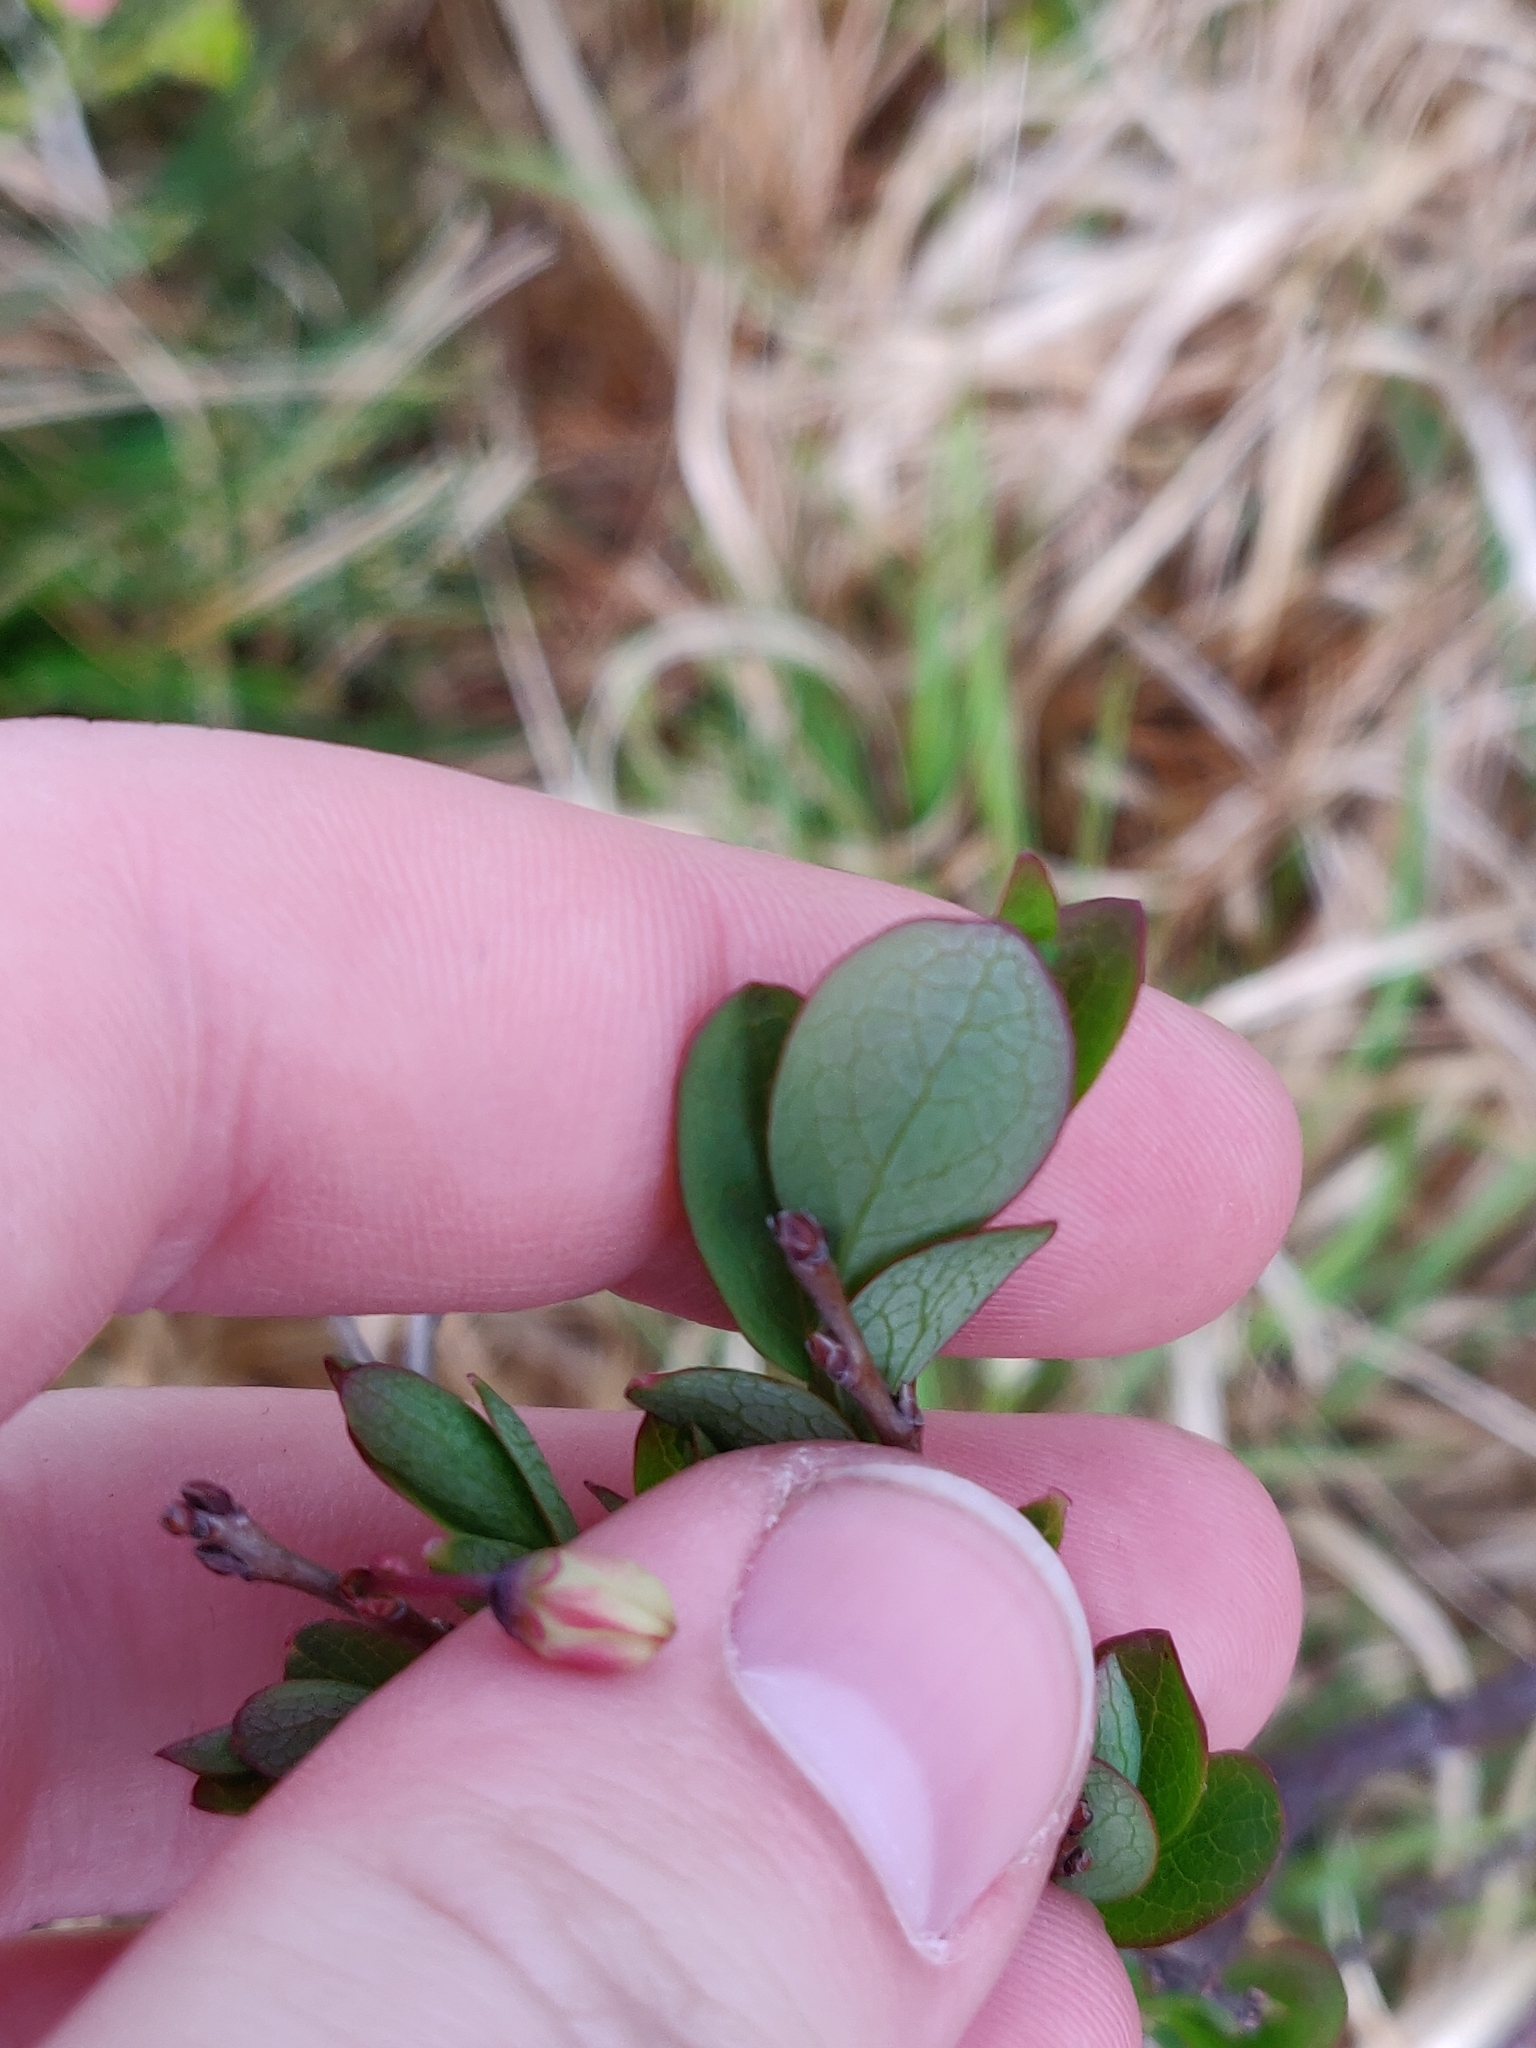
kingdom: Plantae
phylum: Tracheophyta
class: Magnoliopsida
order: Ericales
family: Ericaceae
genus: Vaccinium
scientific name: Vaccinium uliginosum
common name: Bog bilberry
